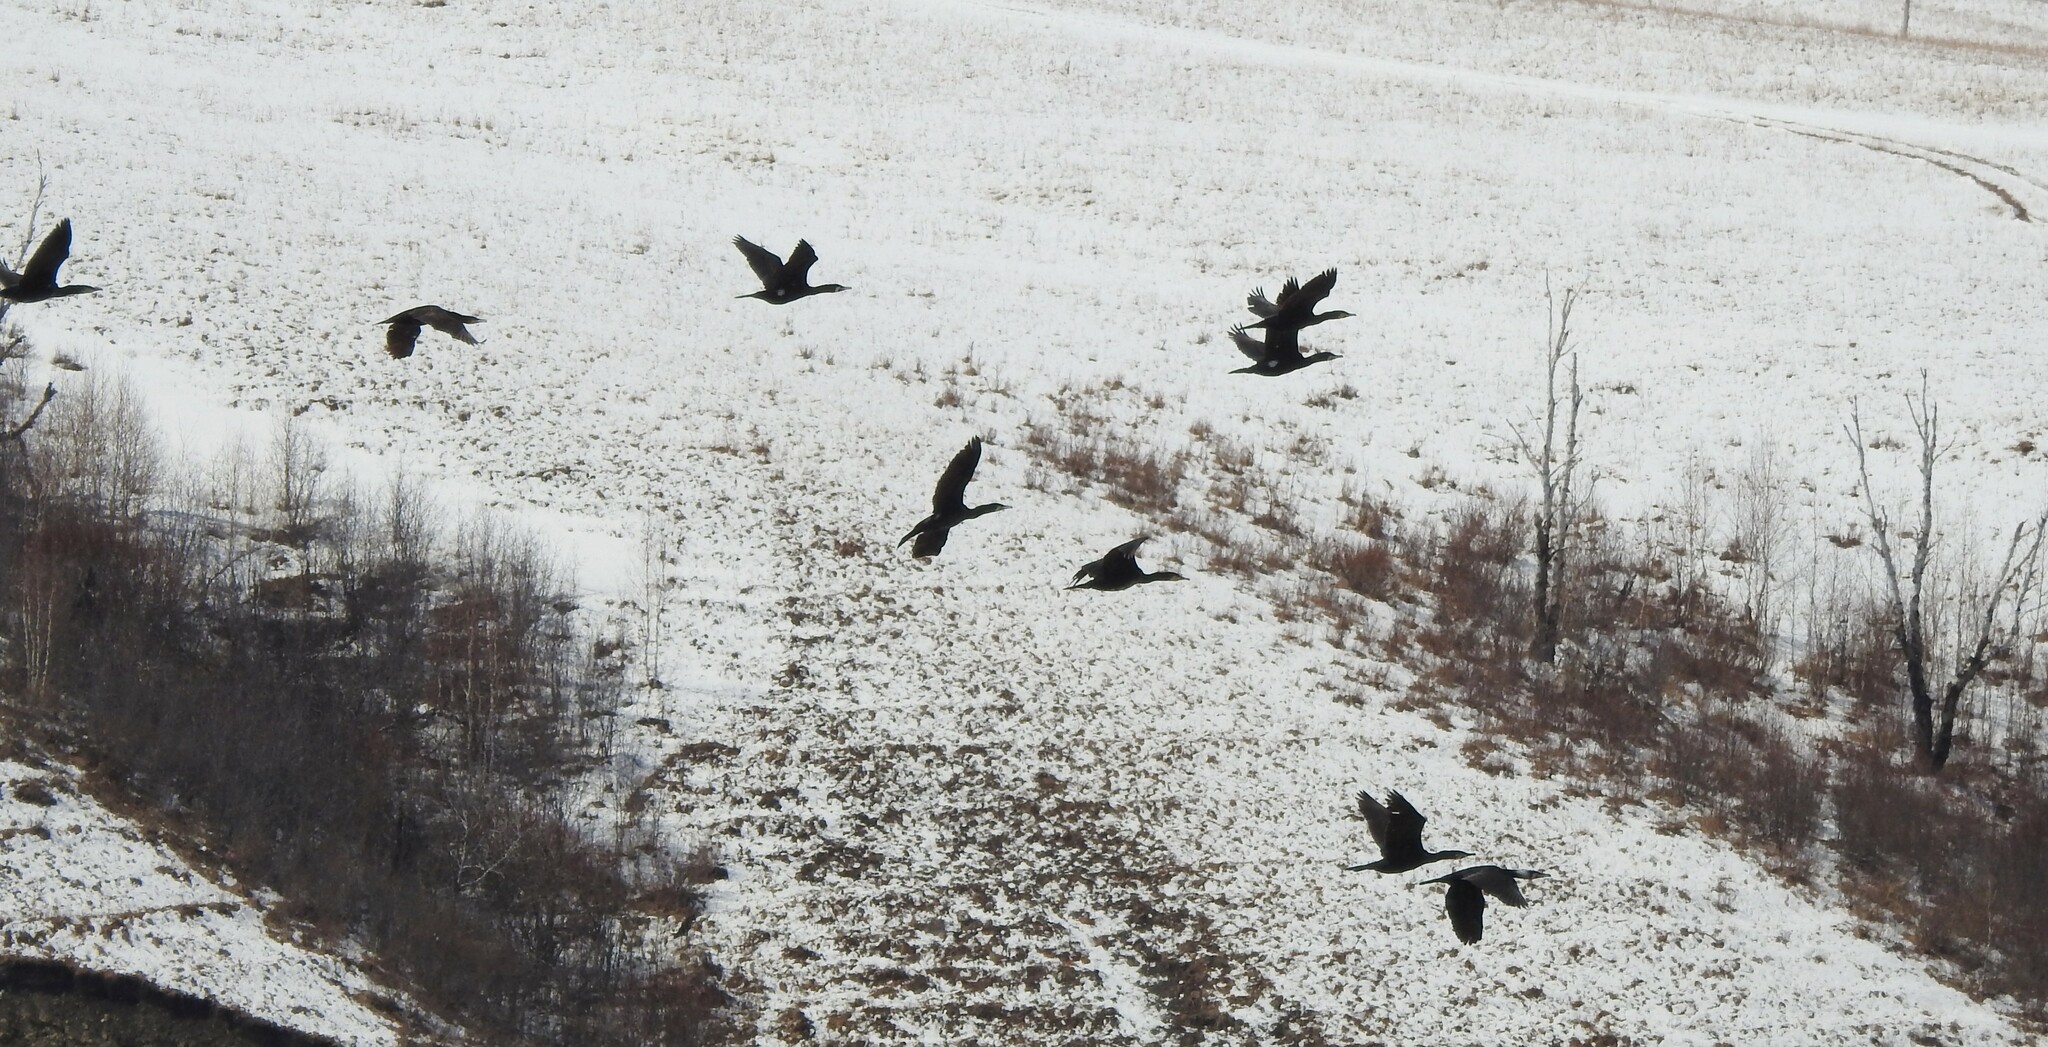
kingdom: Animalia
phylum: Chordata
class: Aves
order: Suliformes
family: Phalacrocoracidae
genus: Phalacrocorax
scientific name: Phalacrocorax carbo
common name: Great cormorant
